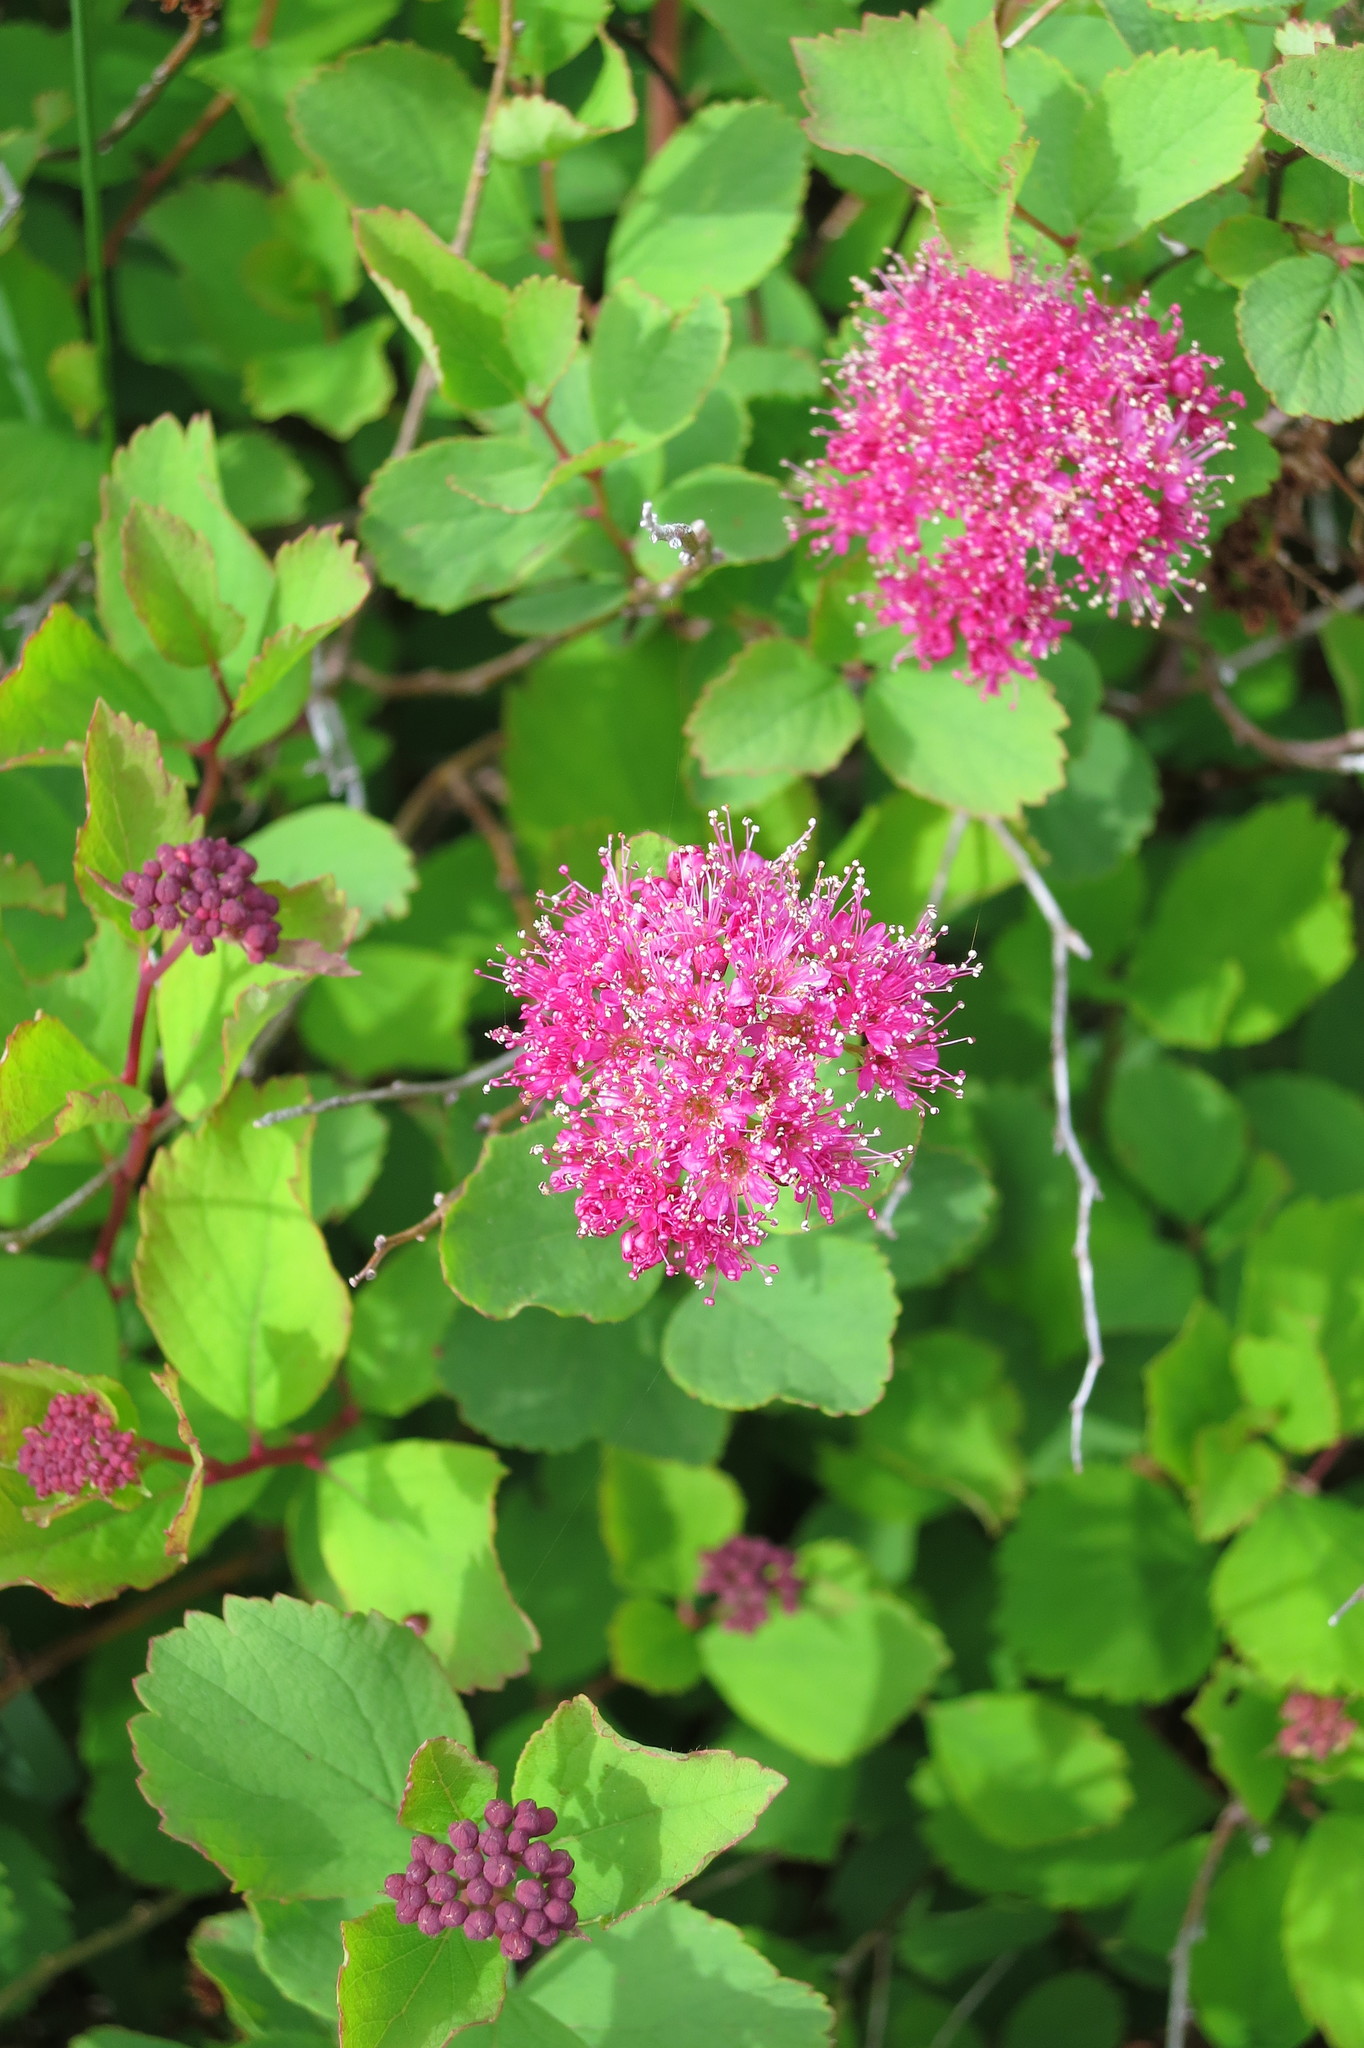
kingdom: Plantae
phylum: Tracheophyta
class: Magnoliopsida
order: Rosales
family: Rosaceae
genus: Spiraea
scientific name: Spiraea splendens
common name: Subalpine meadowsweet
